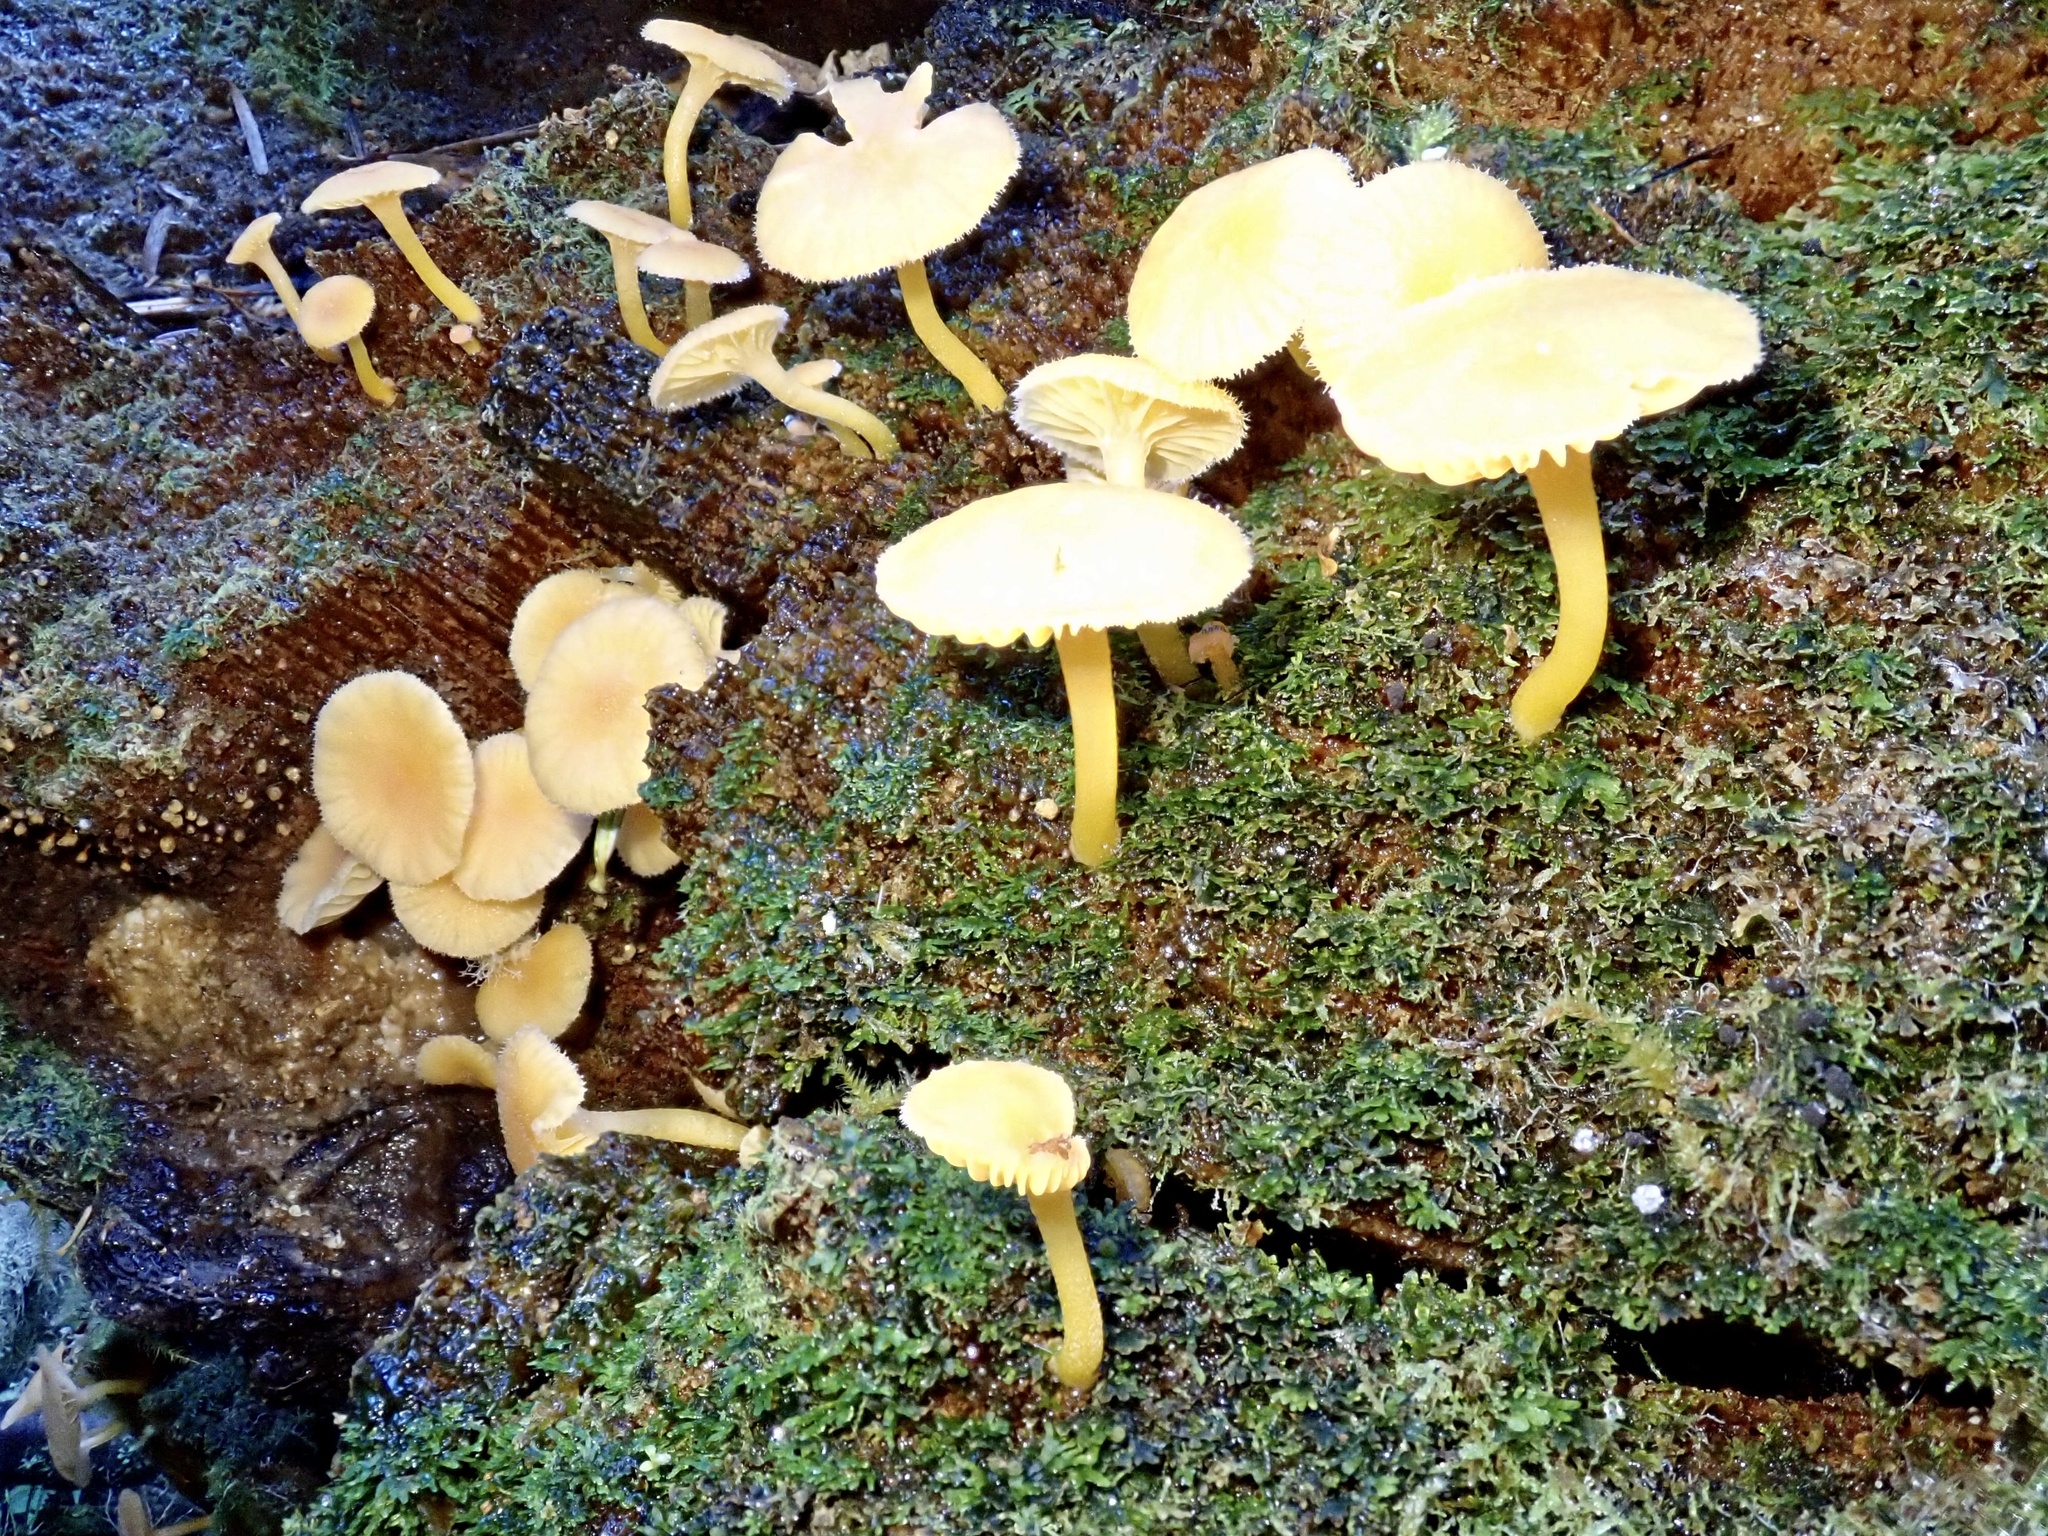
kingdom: Fungi
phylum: Basidiomycota
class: Agaricomycetes
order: Agaricales
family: Hygrophoraceae
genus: Chrysomphalina
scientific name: Chrysomphalina aurantiaca
